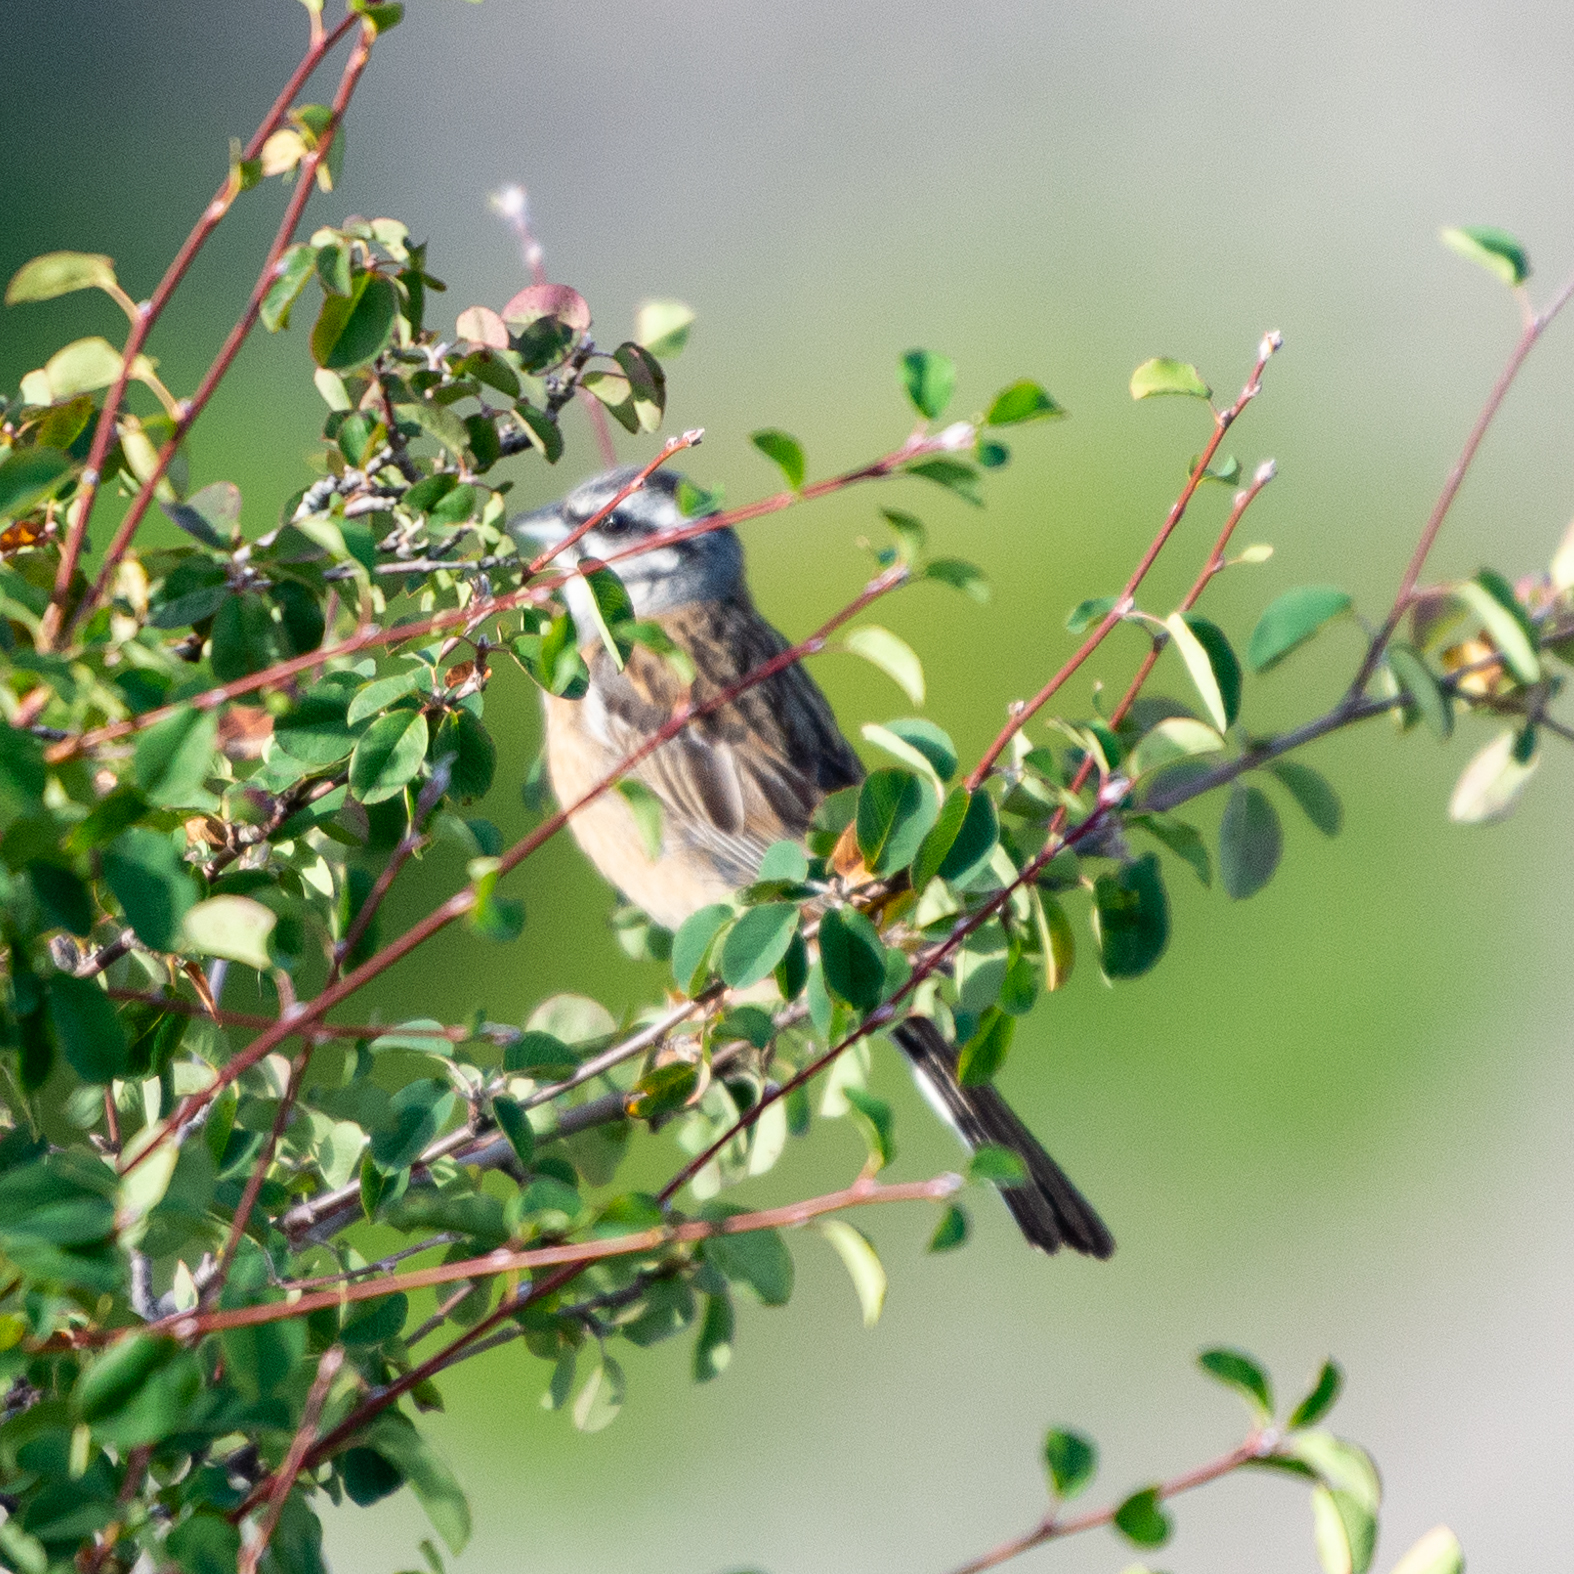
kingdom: Animalia
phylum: Chordata
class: Aves
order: Passeriformes
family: Emberizidae
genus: Emberiza
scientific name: Emberiza cia
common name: Rock bunting
